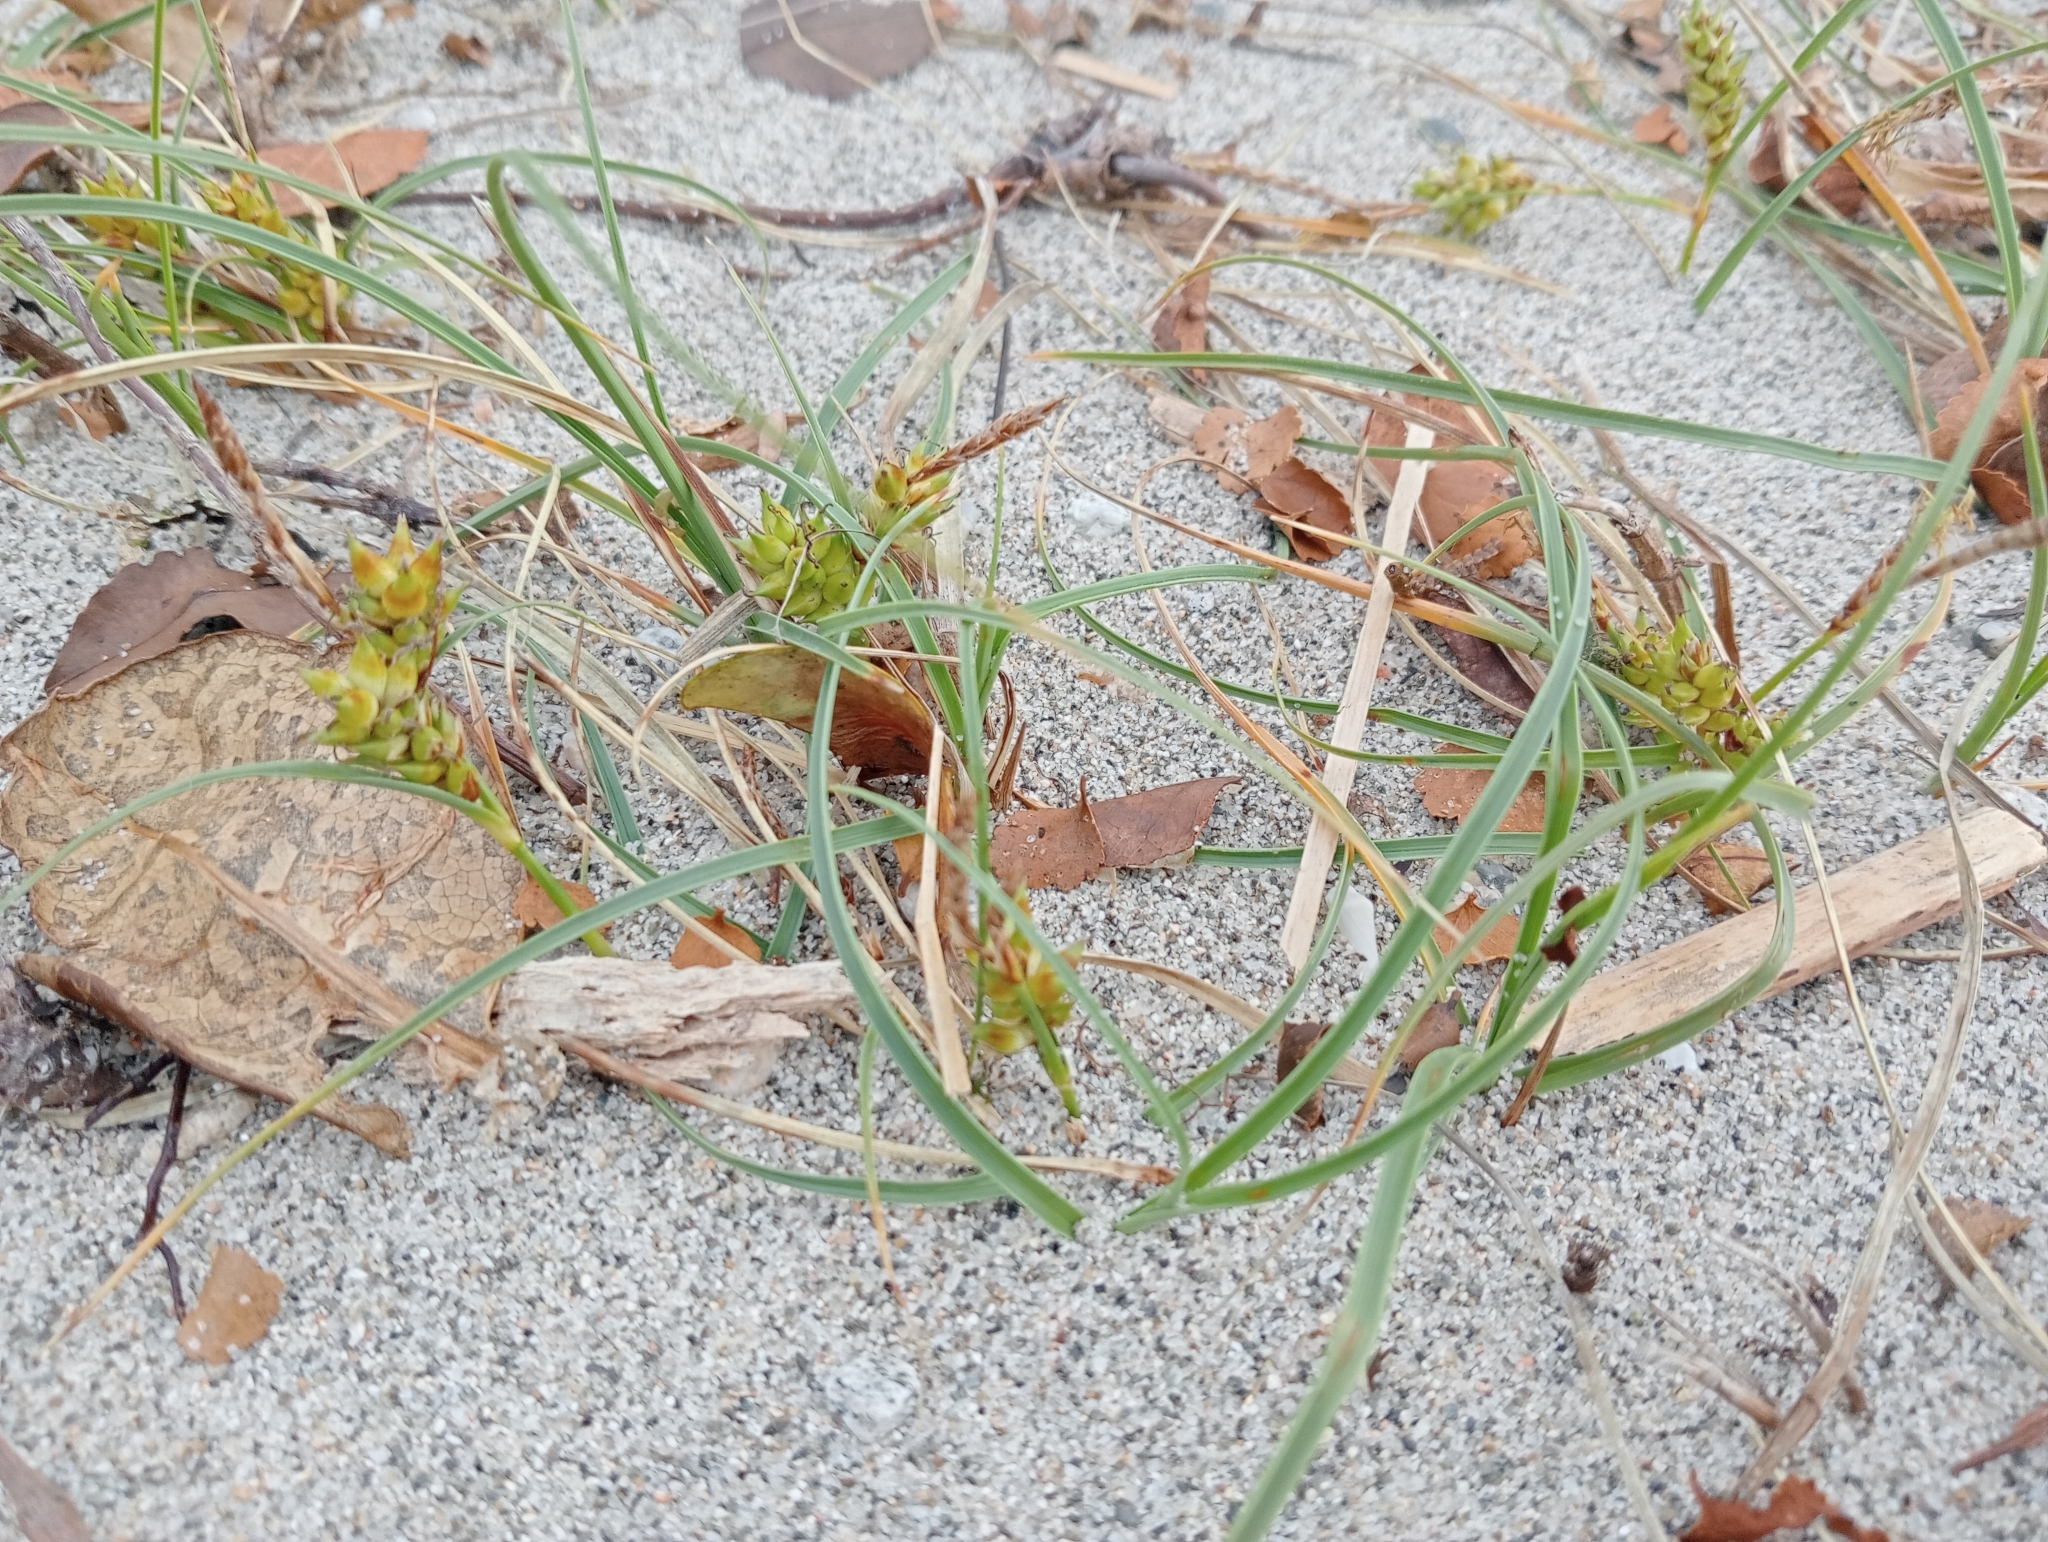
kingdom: Plantae
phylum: Tracheophyta
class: Liliopsida
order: Poales
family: Cyperaceae
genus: Carex
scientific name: Carex pumila
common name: Dwarf sedge
